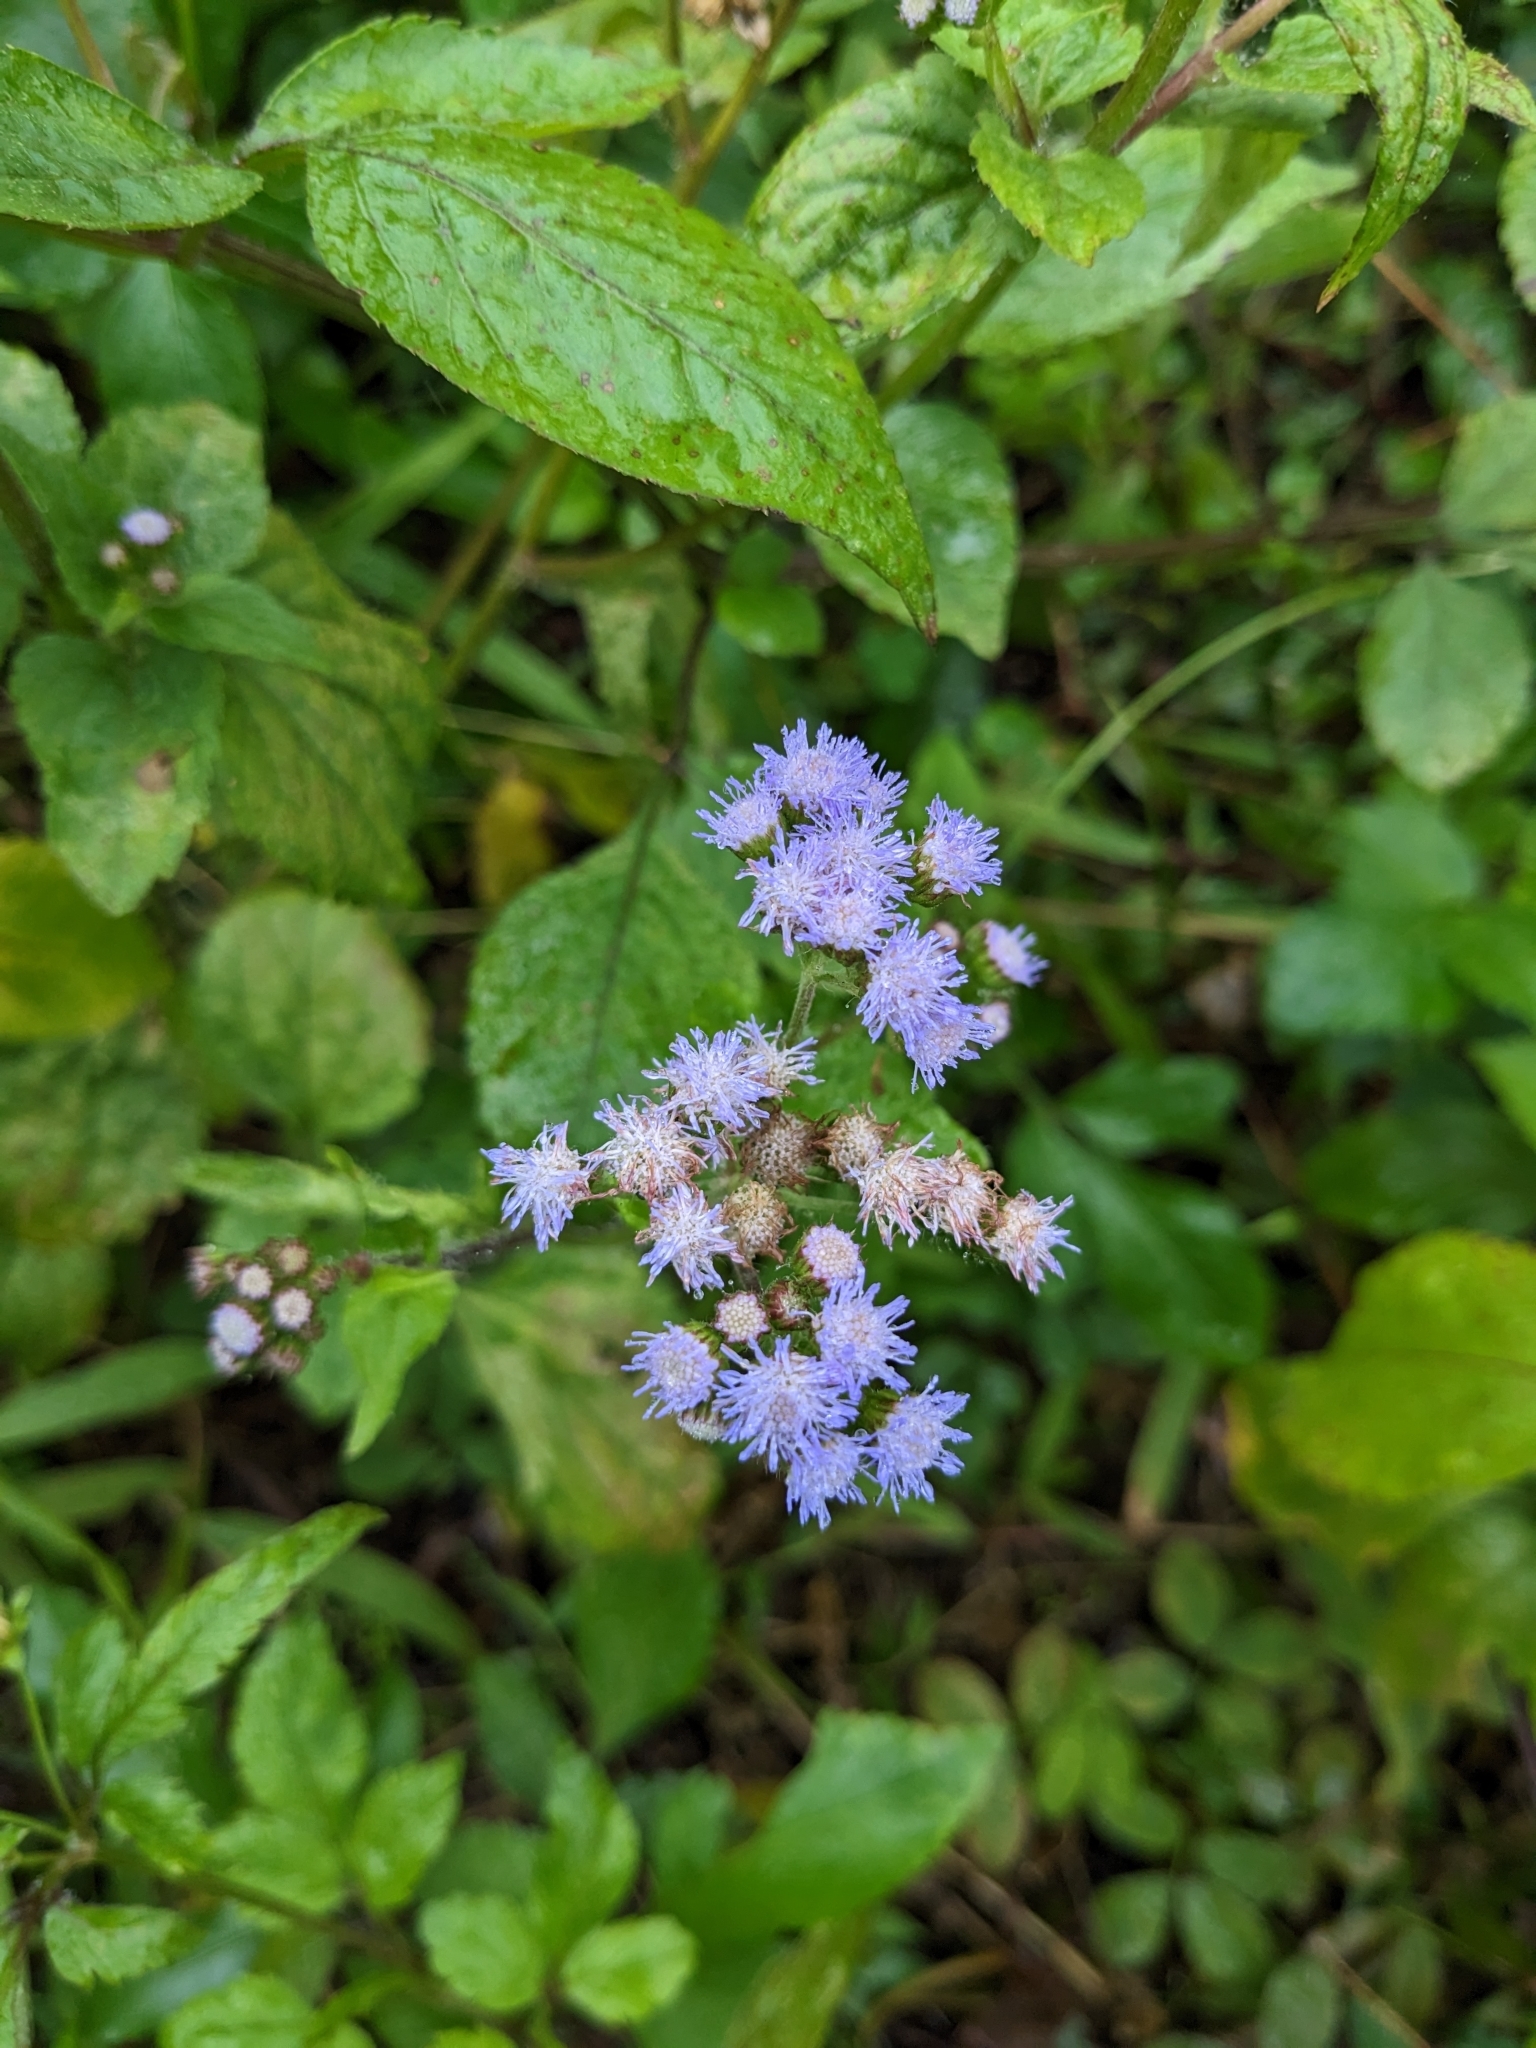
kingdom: Plantae
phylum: Tracheophyta
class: Magnoliopsida
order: Asterales
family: Asteraceae
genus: Ageratum
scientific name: Ageratum conyzoides
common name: Tropical whiteweed
